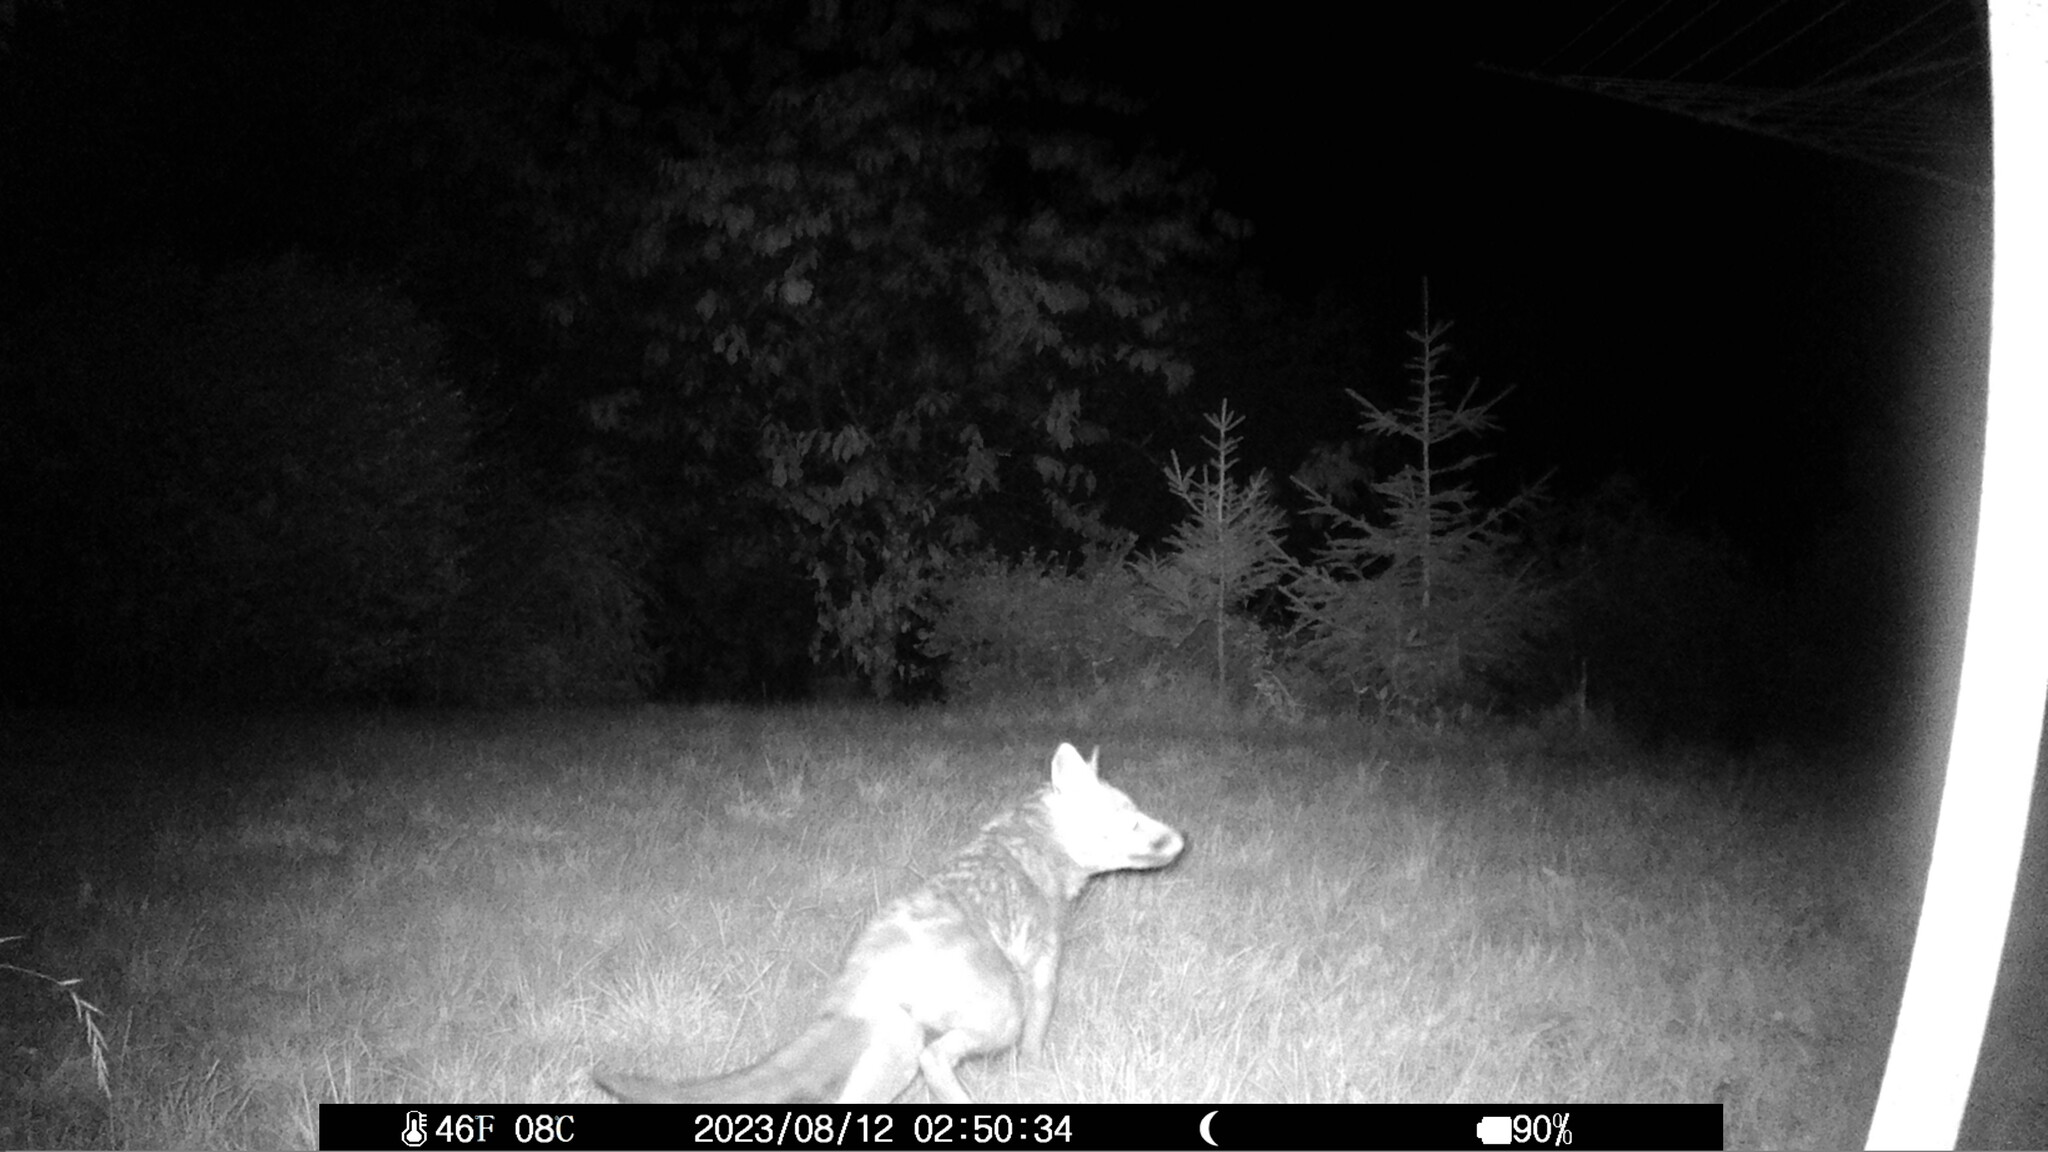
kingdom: Animalia
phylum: Chordata
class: Mammalia
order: Carnivora
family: Canidae
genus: Vulpes
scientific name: Vulpes vulpes
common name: Red fox
